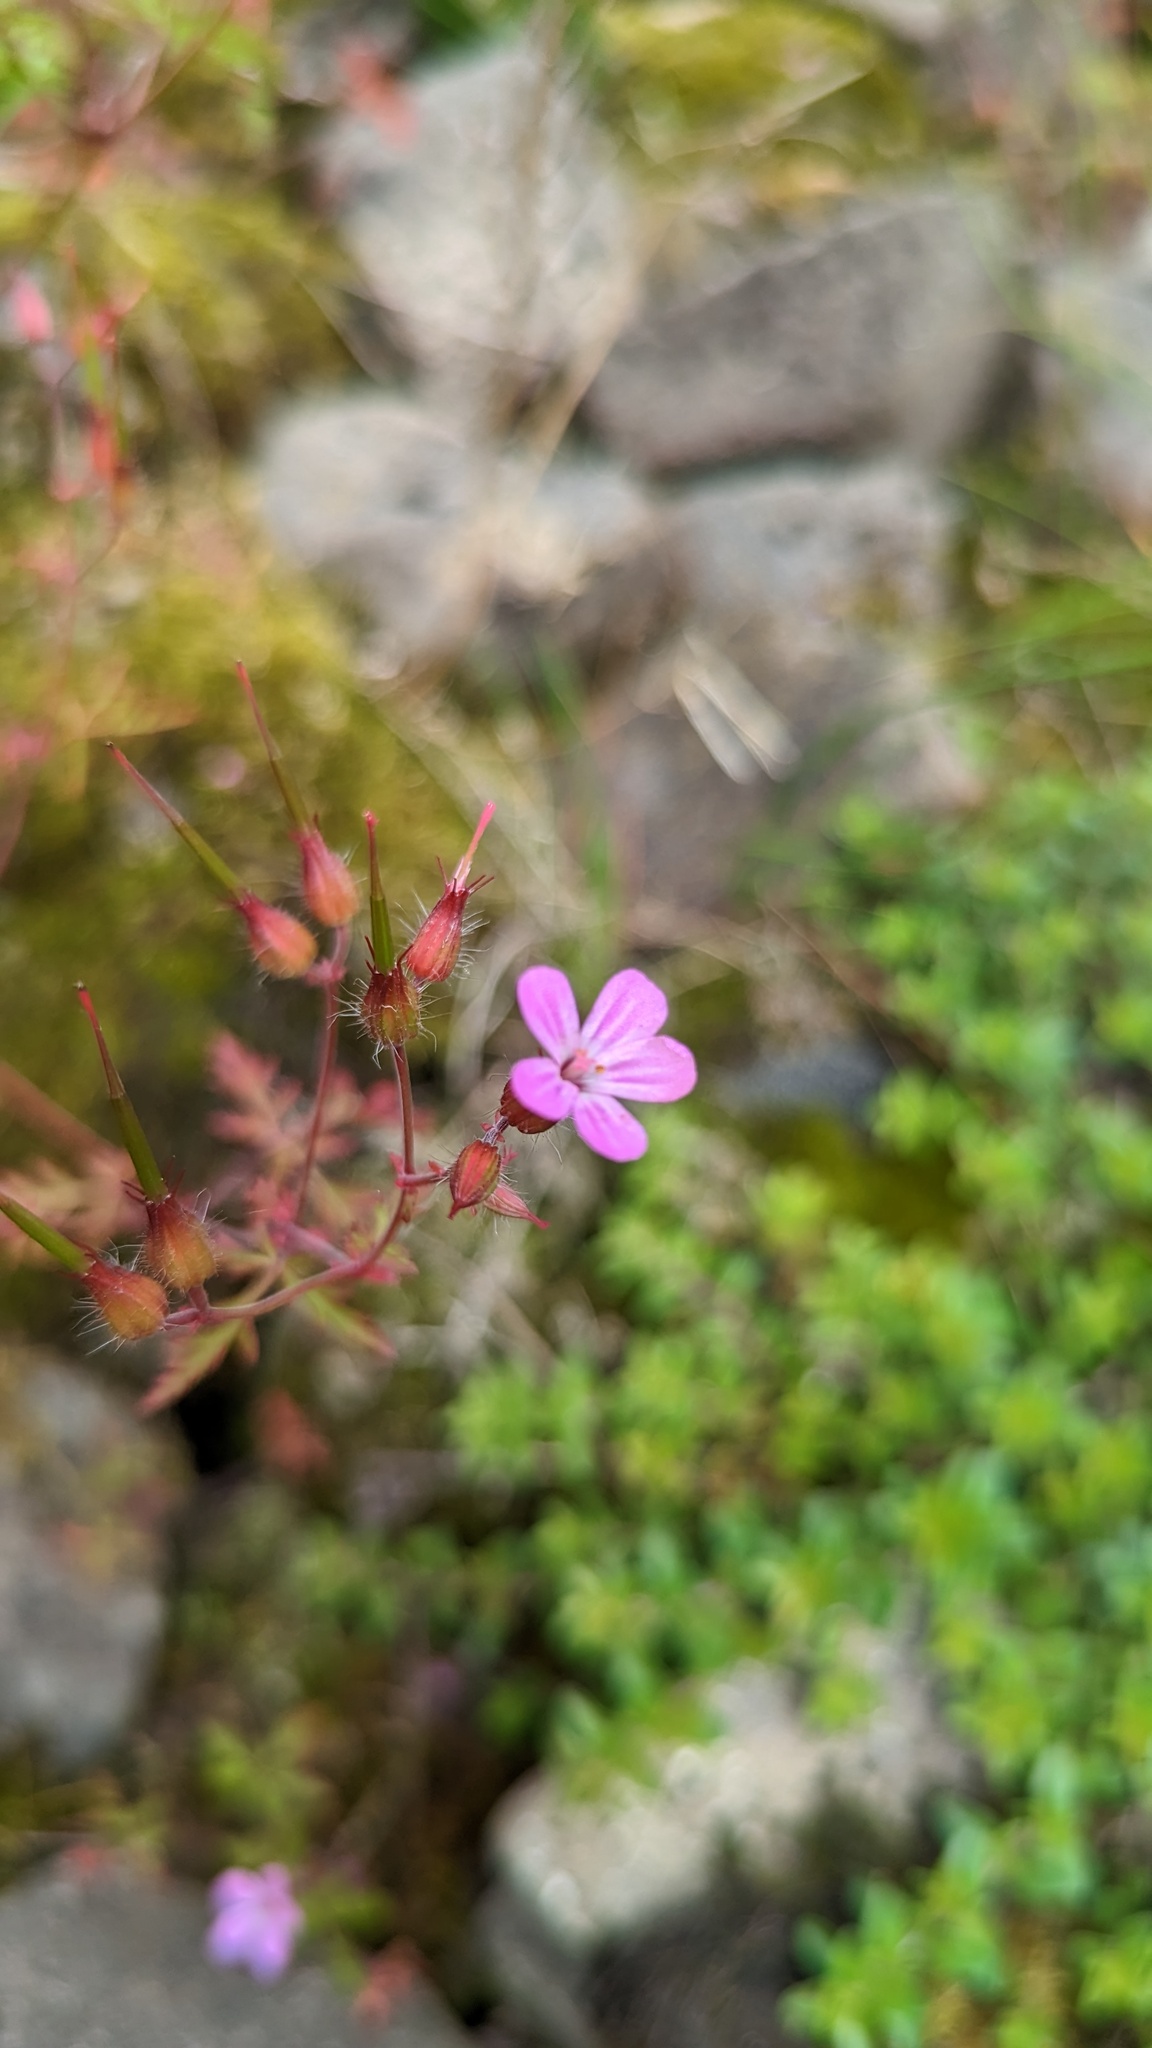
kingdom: Plantae
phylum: Tracheophyta
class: Magnoliopsida
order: Geraniales
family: Geraniaceae
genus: Geranium
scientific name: Geranium robertianum
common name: Herb-robert
